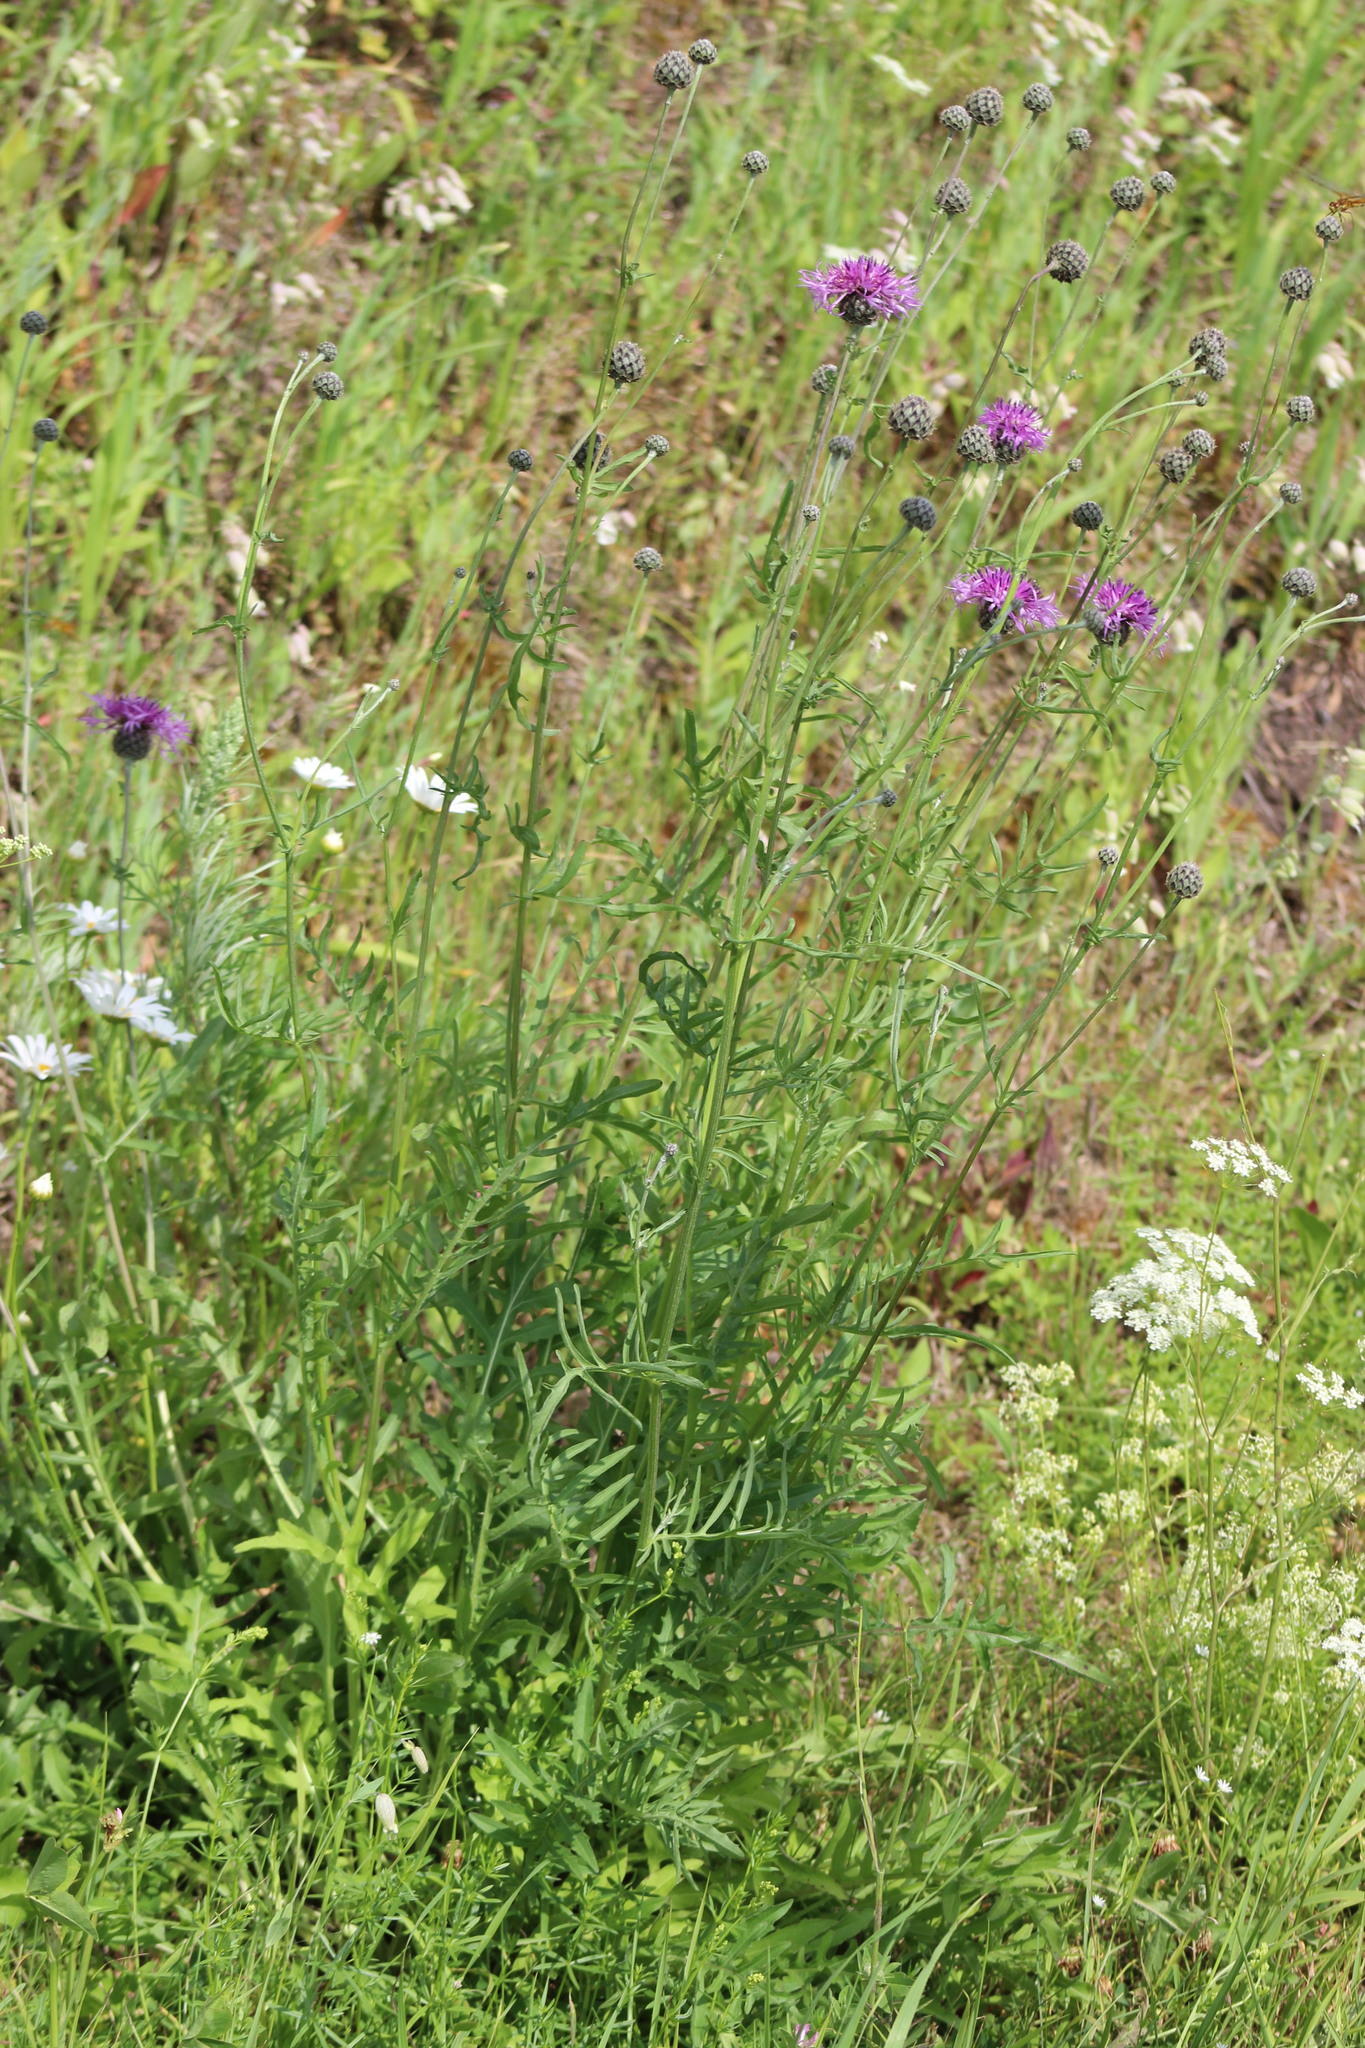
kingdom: Plantae
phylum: Tracheophyta
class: Magnoliopsida
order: Asterales
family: Asteraceae
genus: Centaurea
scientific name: Centaurea scabiosa
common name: Greater knapweed
